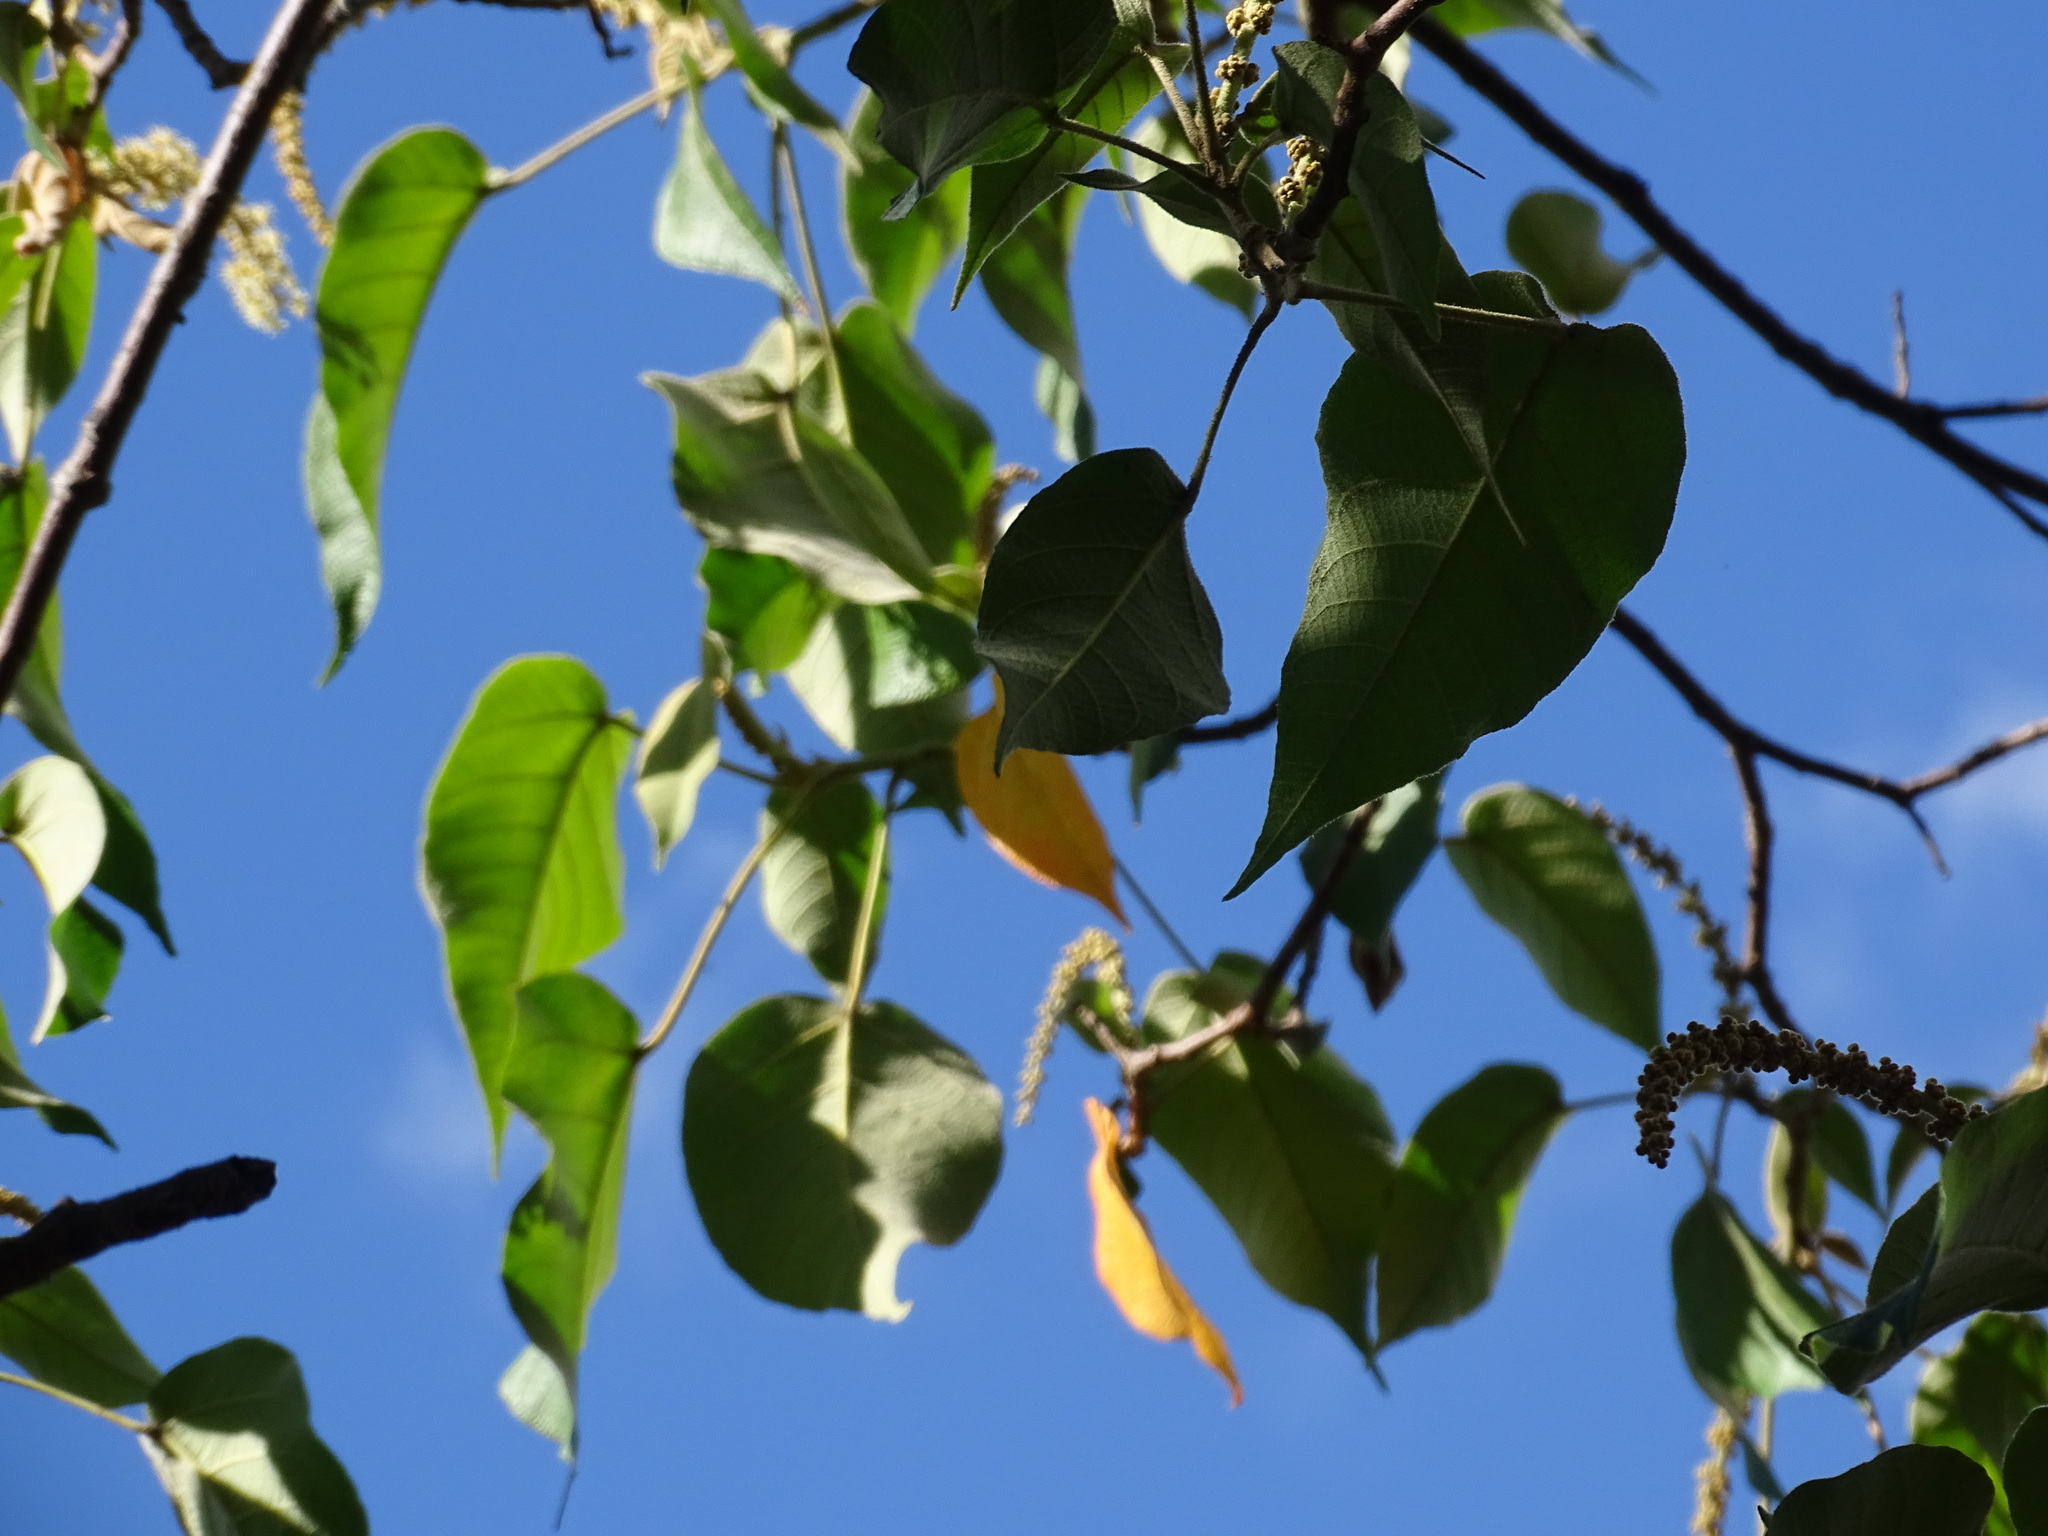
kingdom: Plantae
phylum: Tracheophyta
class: Magnoliopsida
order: Malpighiales
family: Euphorbiaceae
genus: Croton
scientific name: Croton draco
